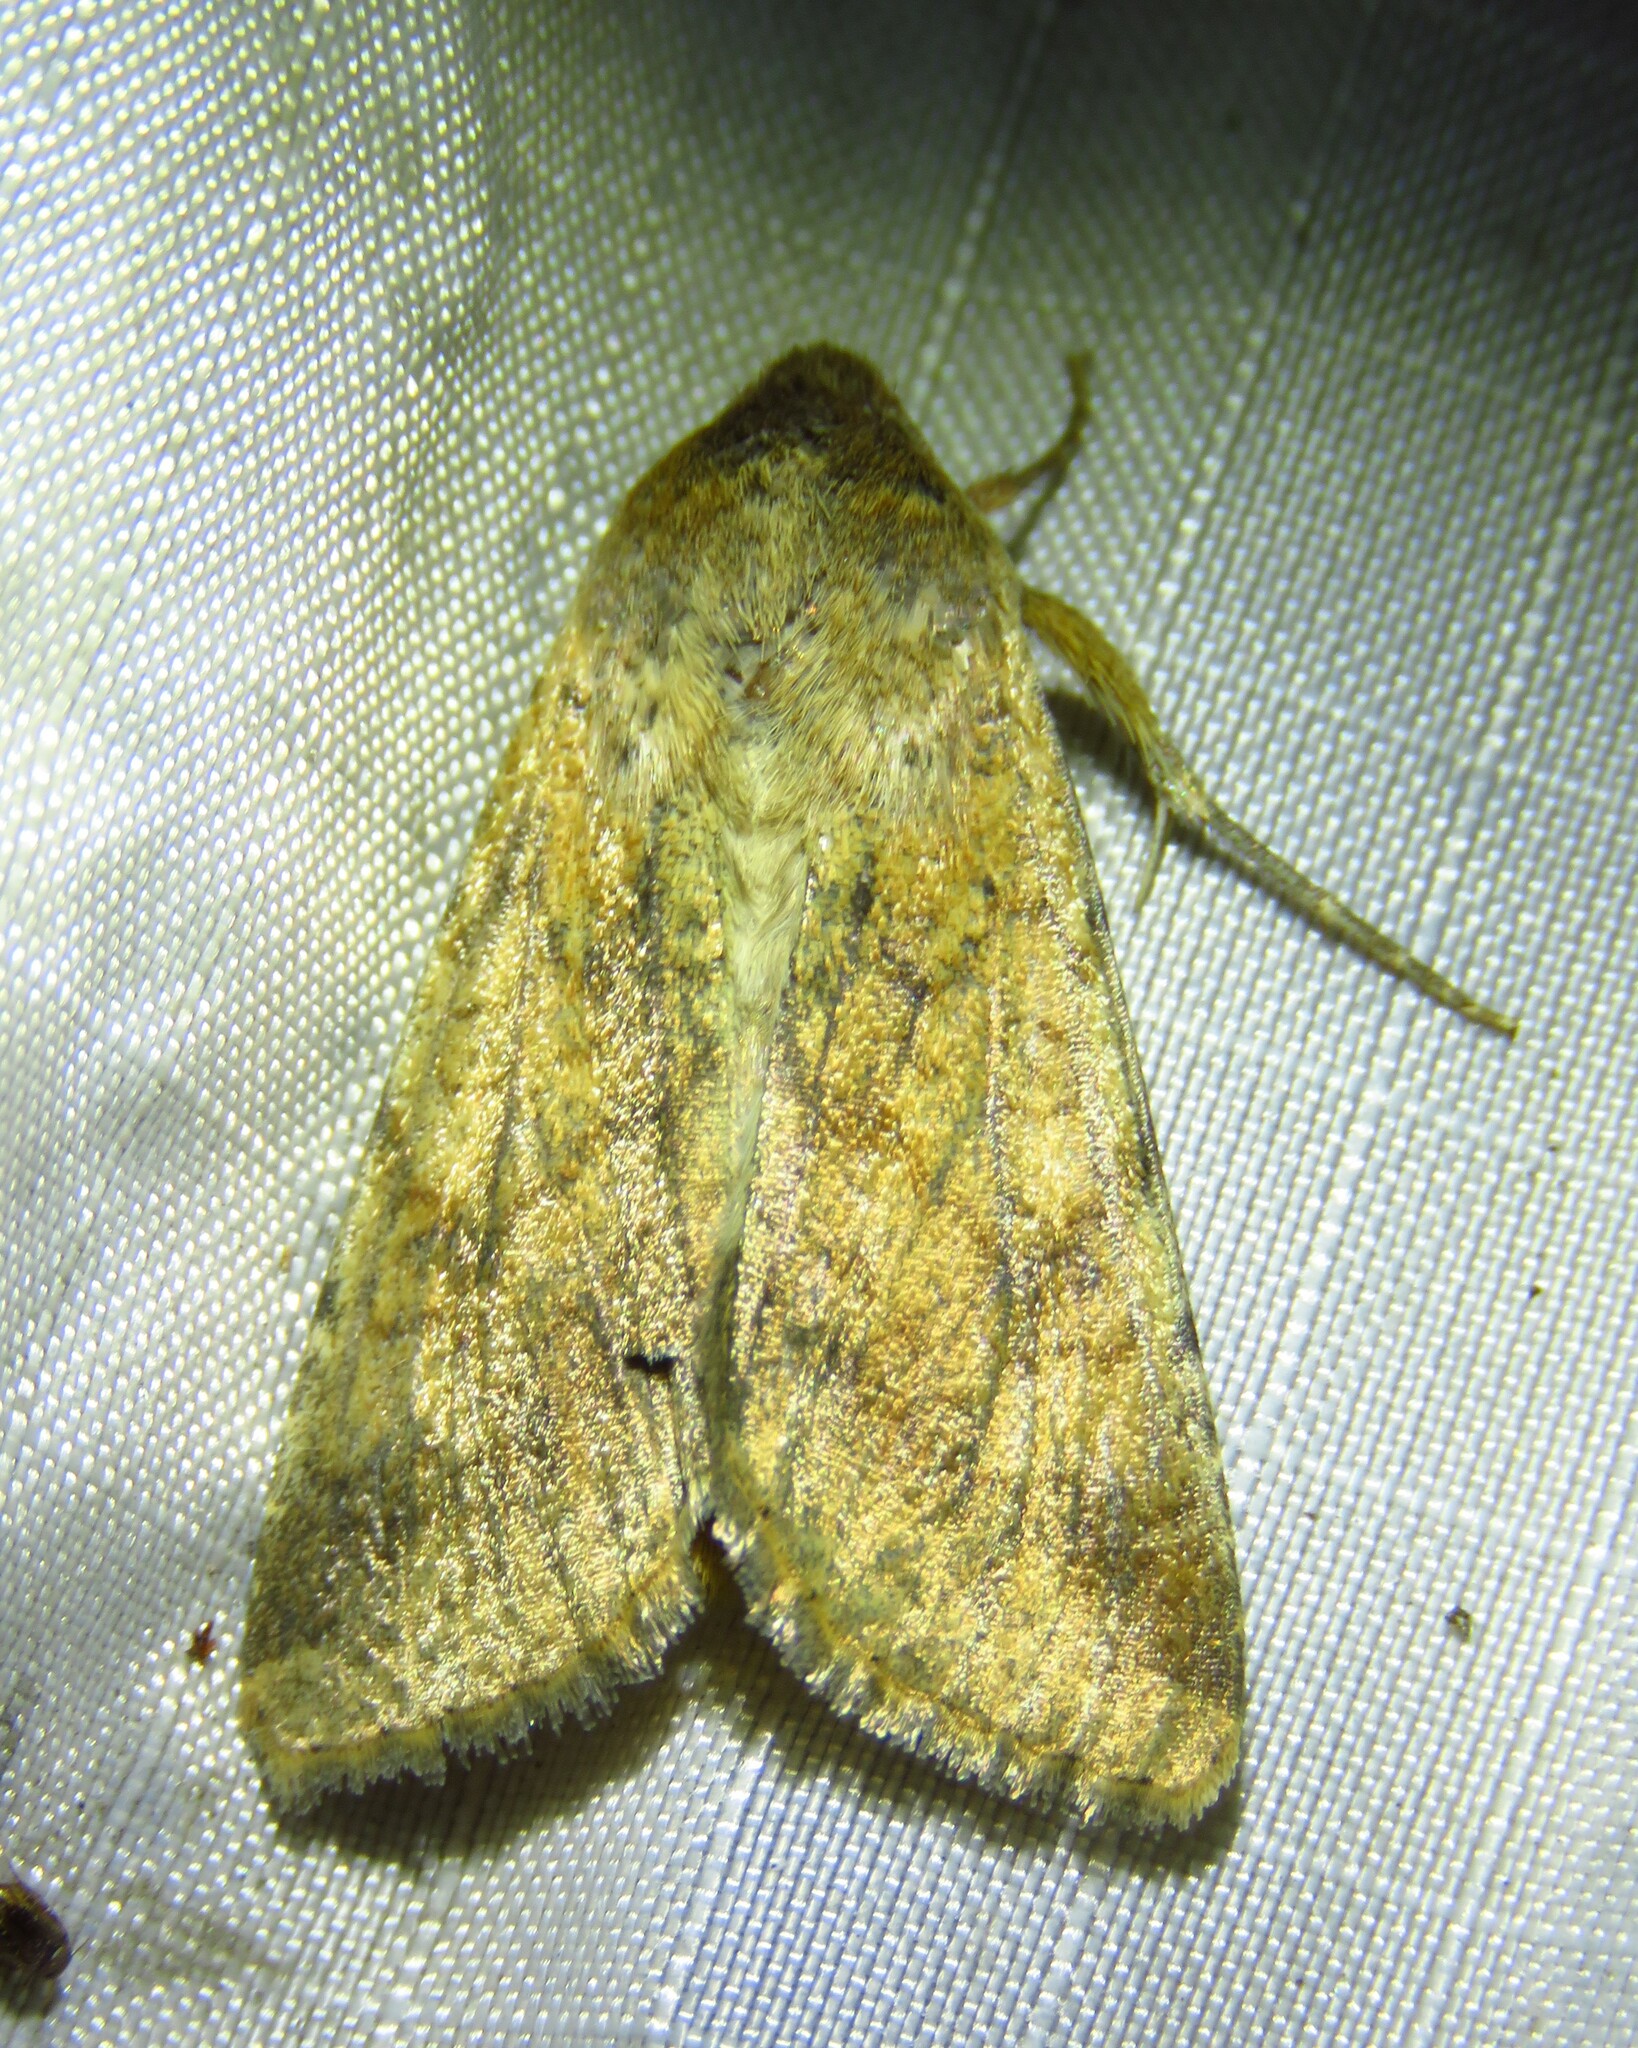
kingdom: Animalia
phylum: Arthropoda
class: Insecta
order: Lepidoptera
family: Noctuidae
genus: Helicoverpa
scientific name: Helicoverpa zea
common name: Bollworm
